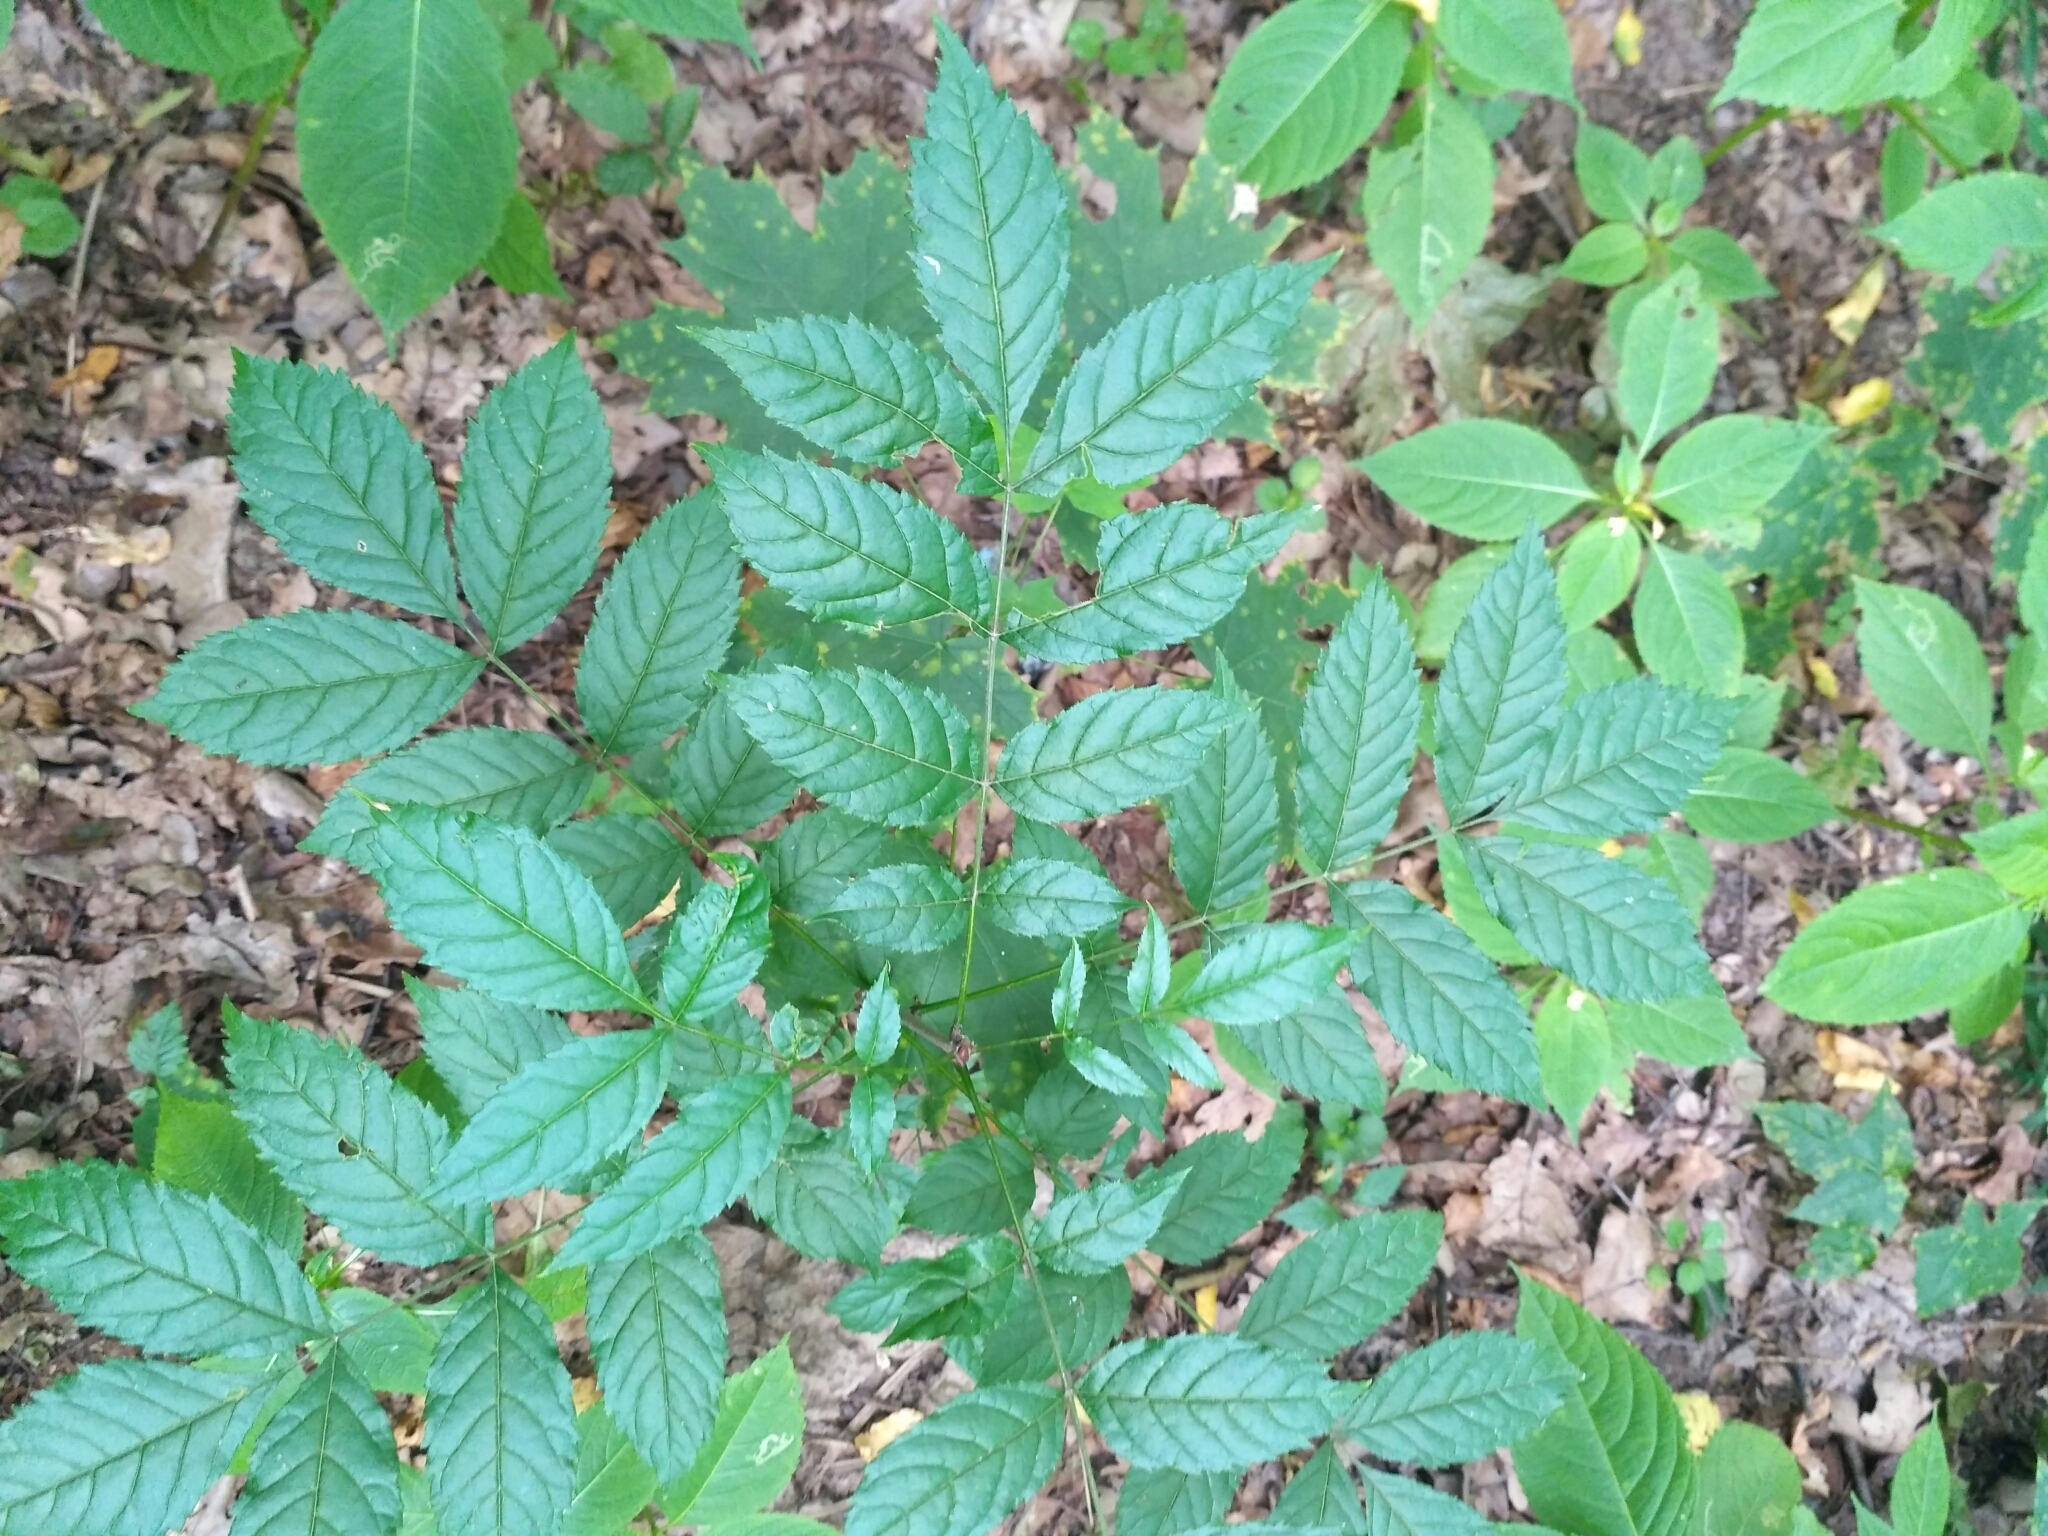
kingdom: Plantae
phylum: Tracheophyta
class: Magnoliopsida
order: Lamiales
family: Oleaceae
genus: Fraxinus
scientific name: Fraxinus excelsior
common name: European ash
